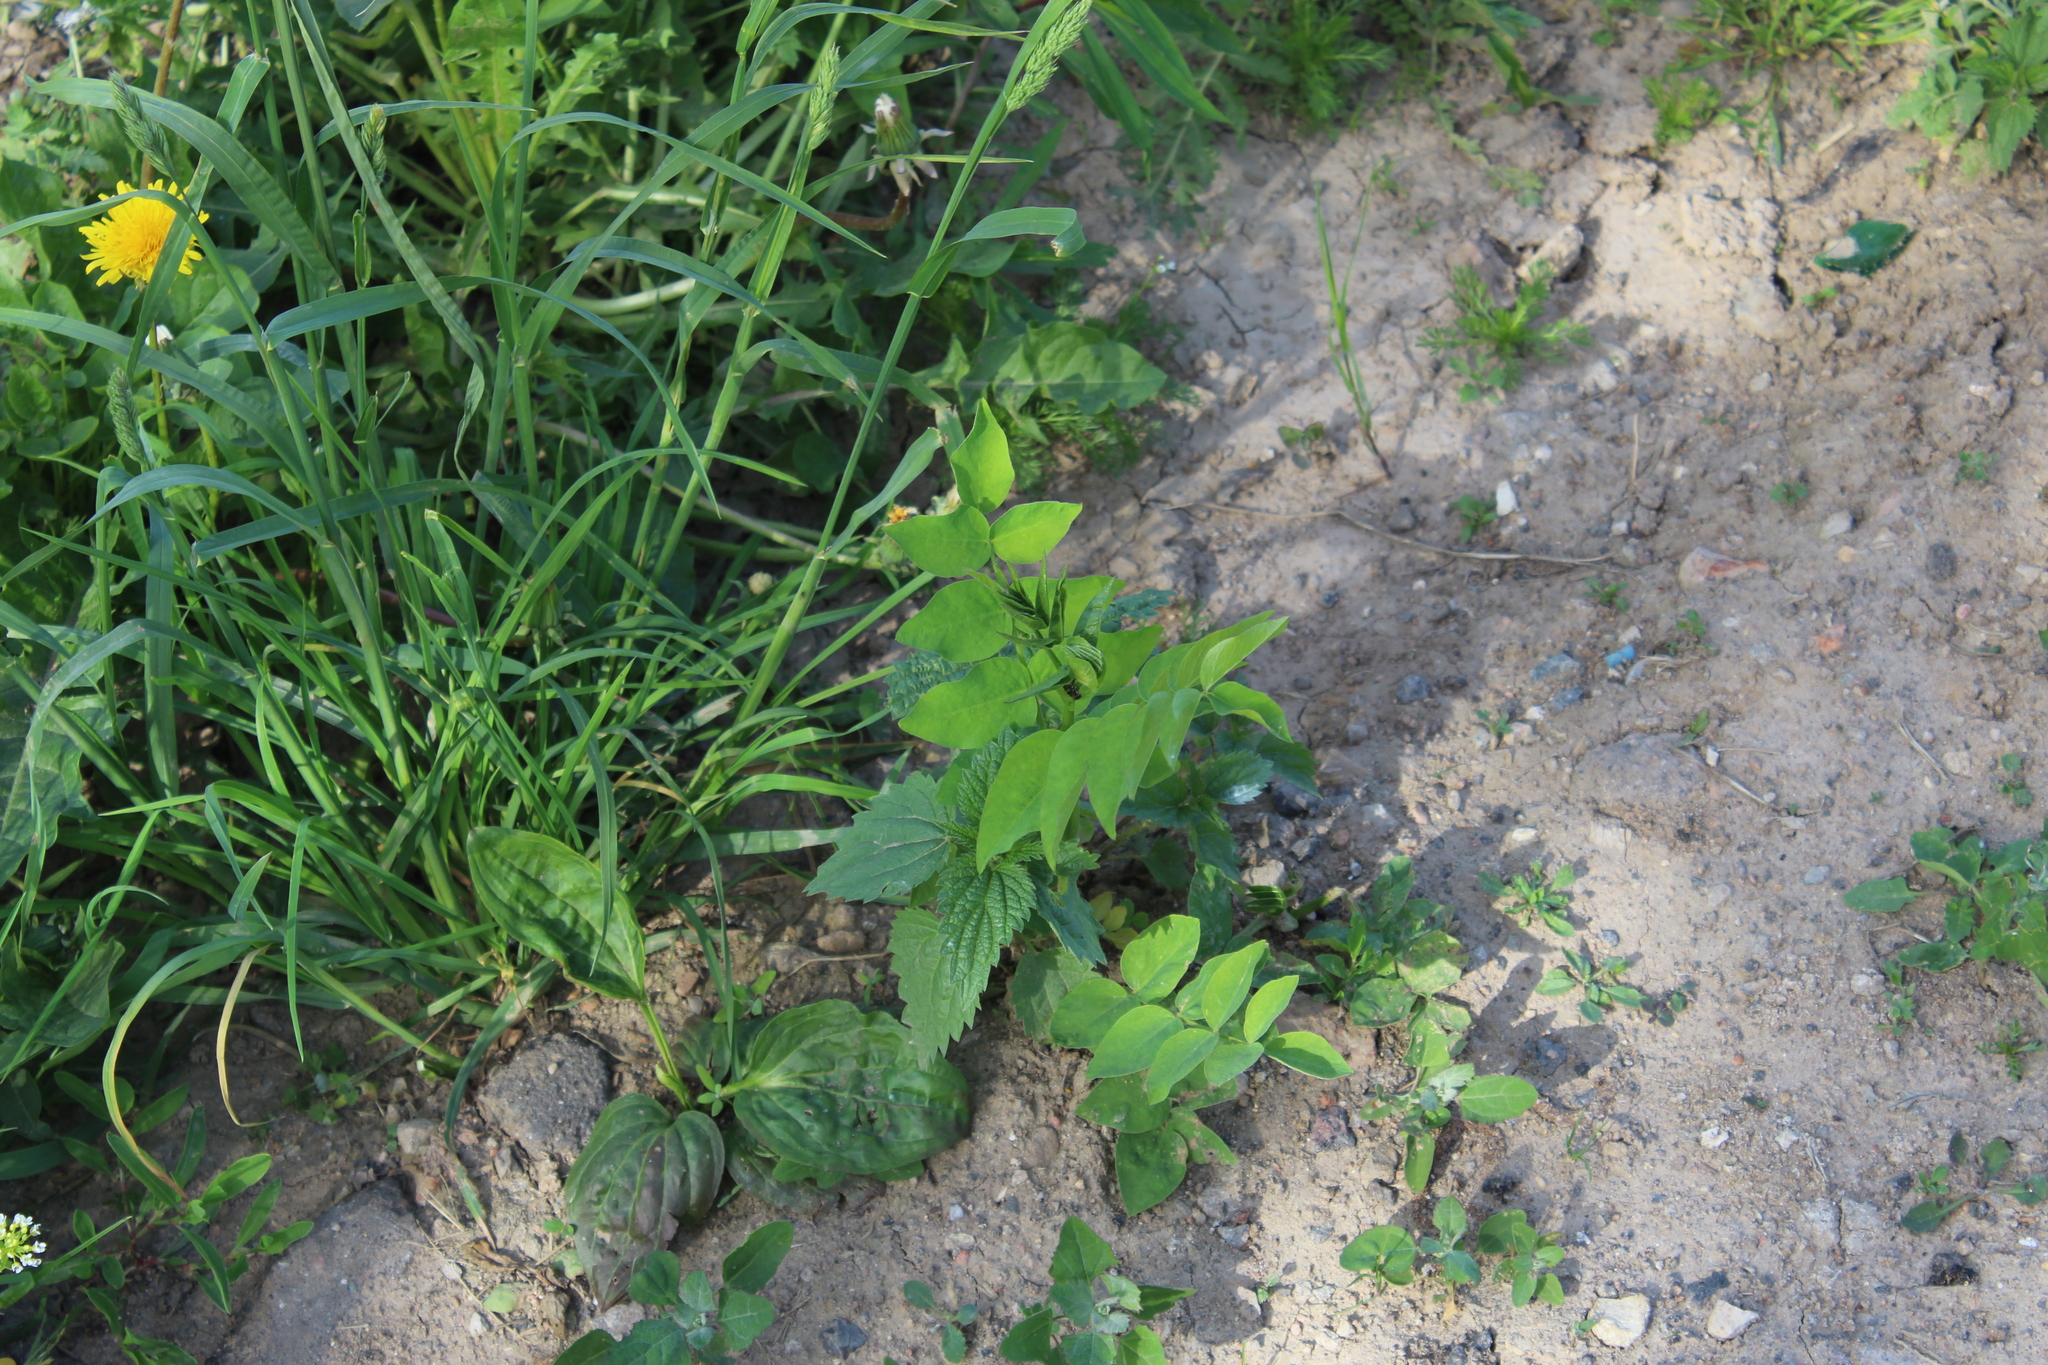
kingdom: Plantae
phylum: Tracheophyta
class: Magnoliopsida
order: Fabales
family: Fabaceae
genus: Galega
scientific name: Galega orientalis
